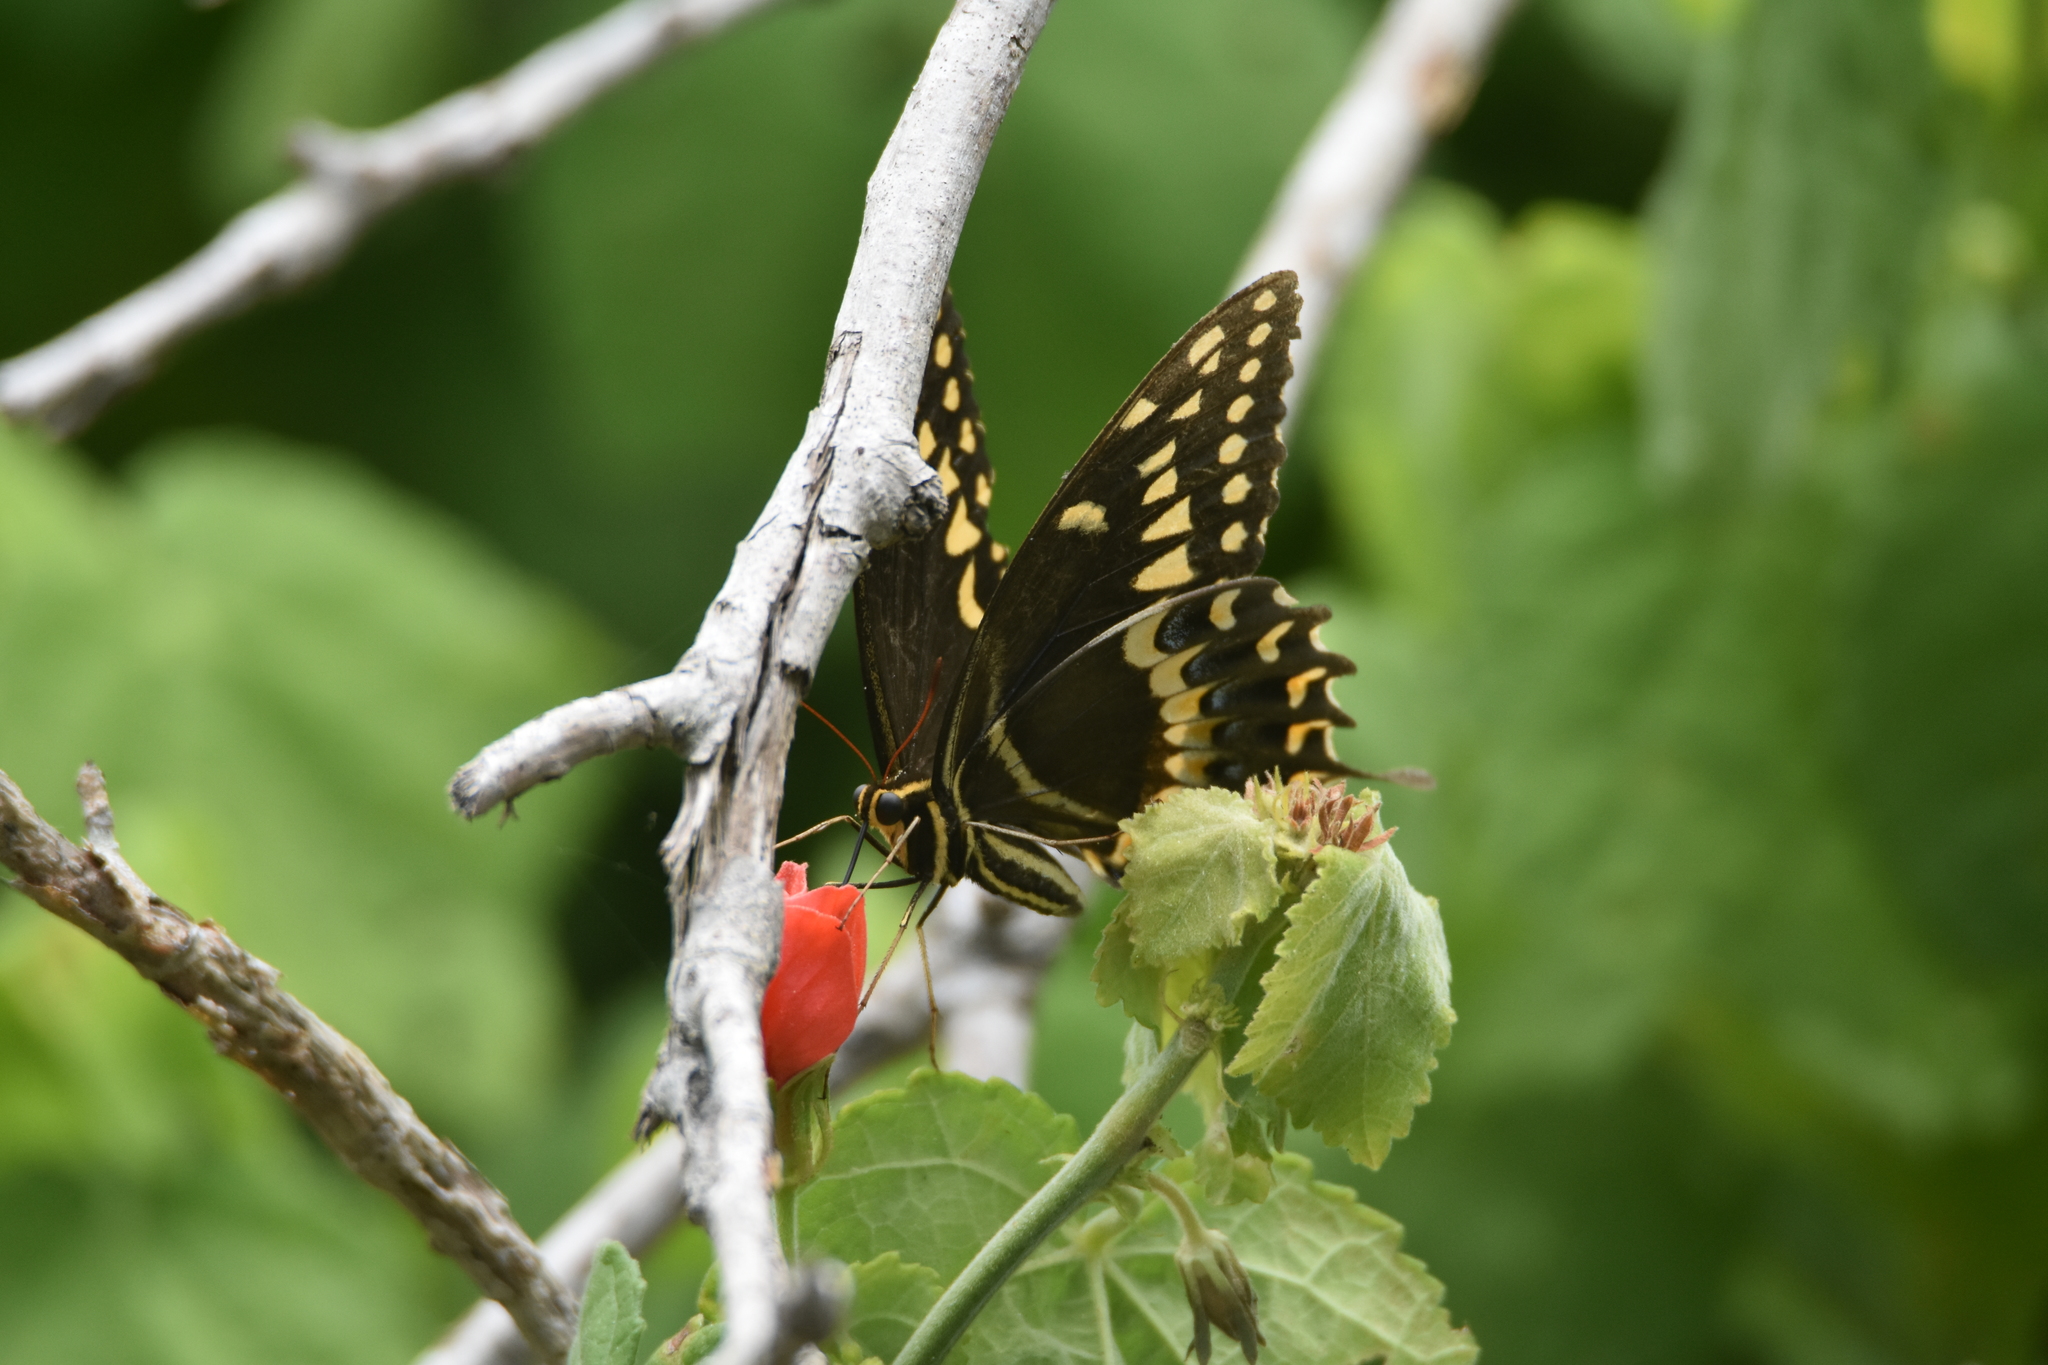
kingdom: Animalia
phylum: Arthropoda
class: Insecta
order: Lepidoptera
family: Papilionidae
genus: Papilio
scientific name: Papilio palamedes
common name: Palamedes swallowtail
